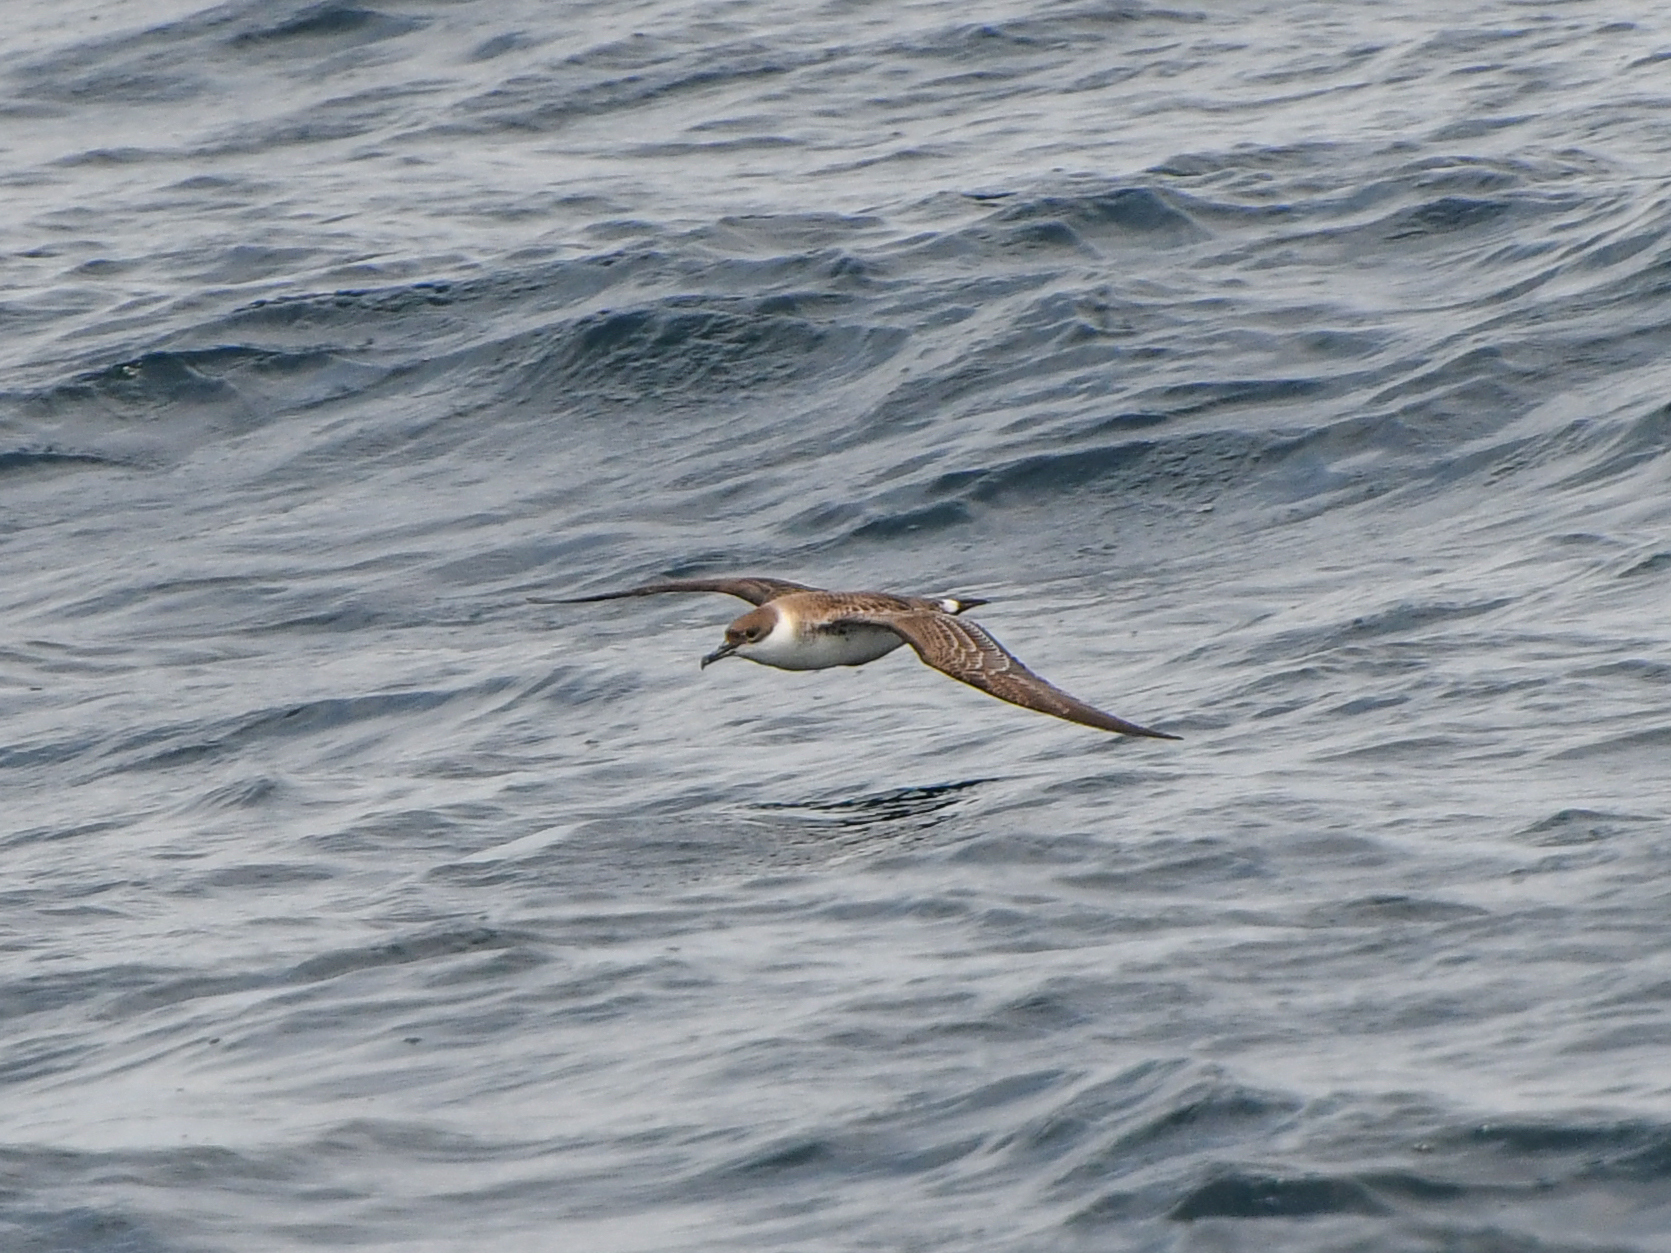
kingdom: Animalia
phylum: Chordata
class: Aves
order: Procellariiformes
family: Procellariidae
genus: Puffinus
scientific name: Puffinus gravis
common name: Great shearwater
